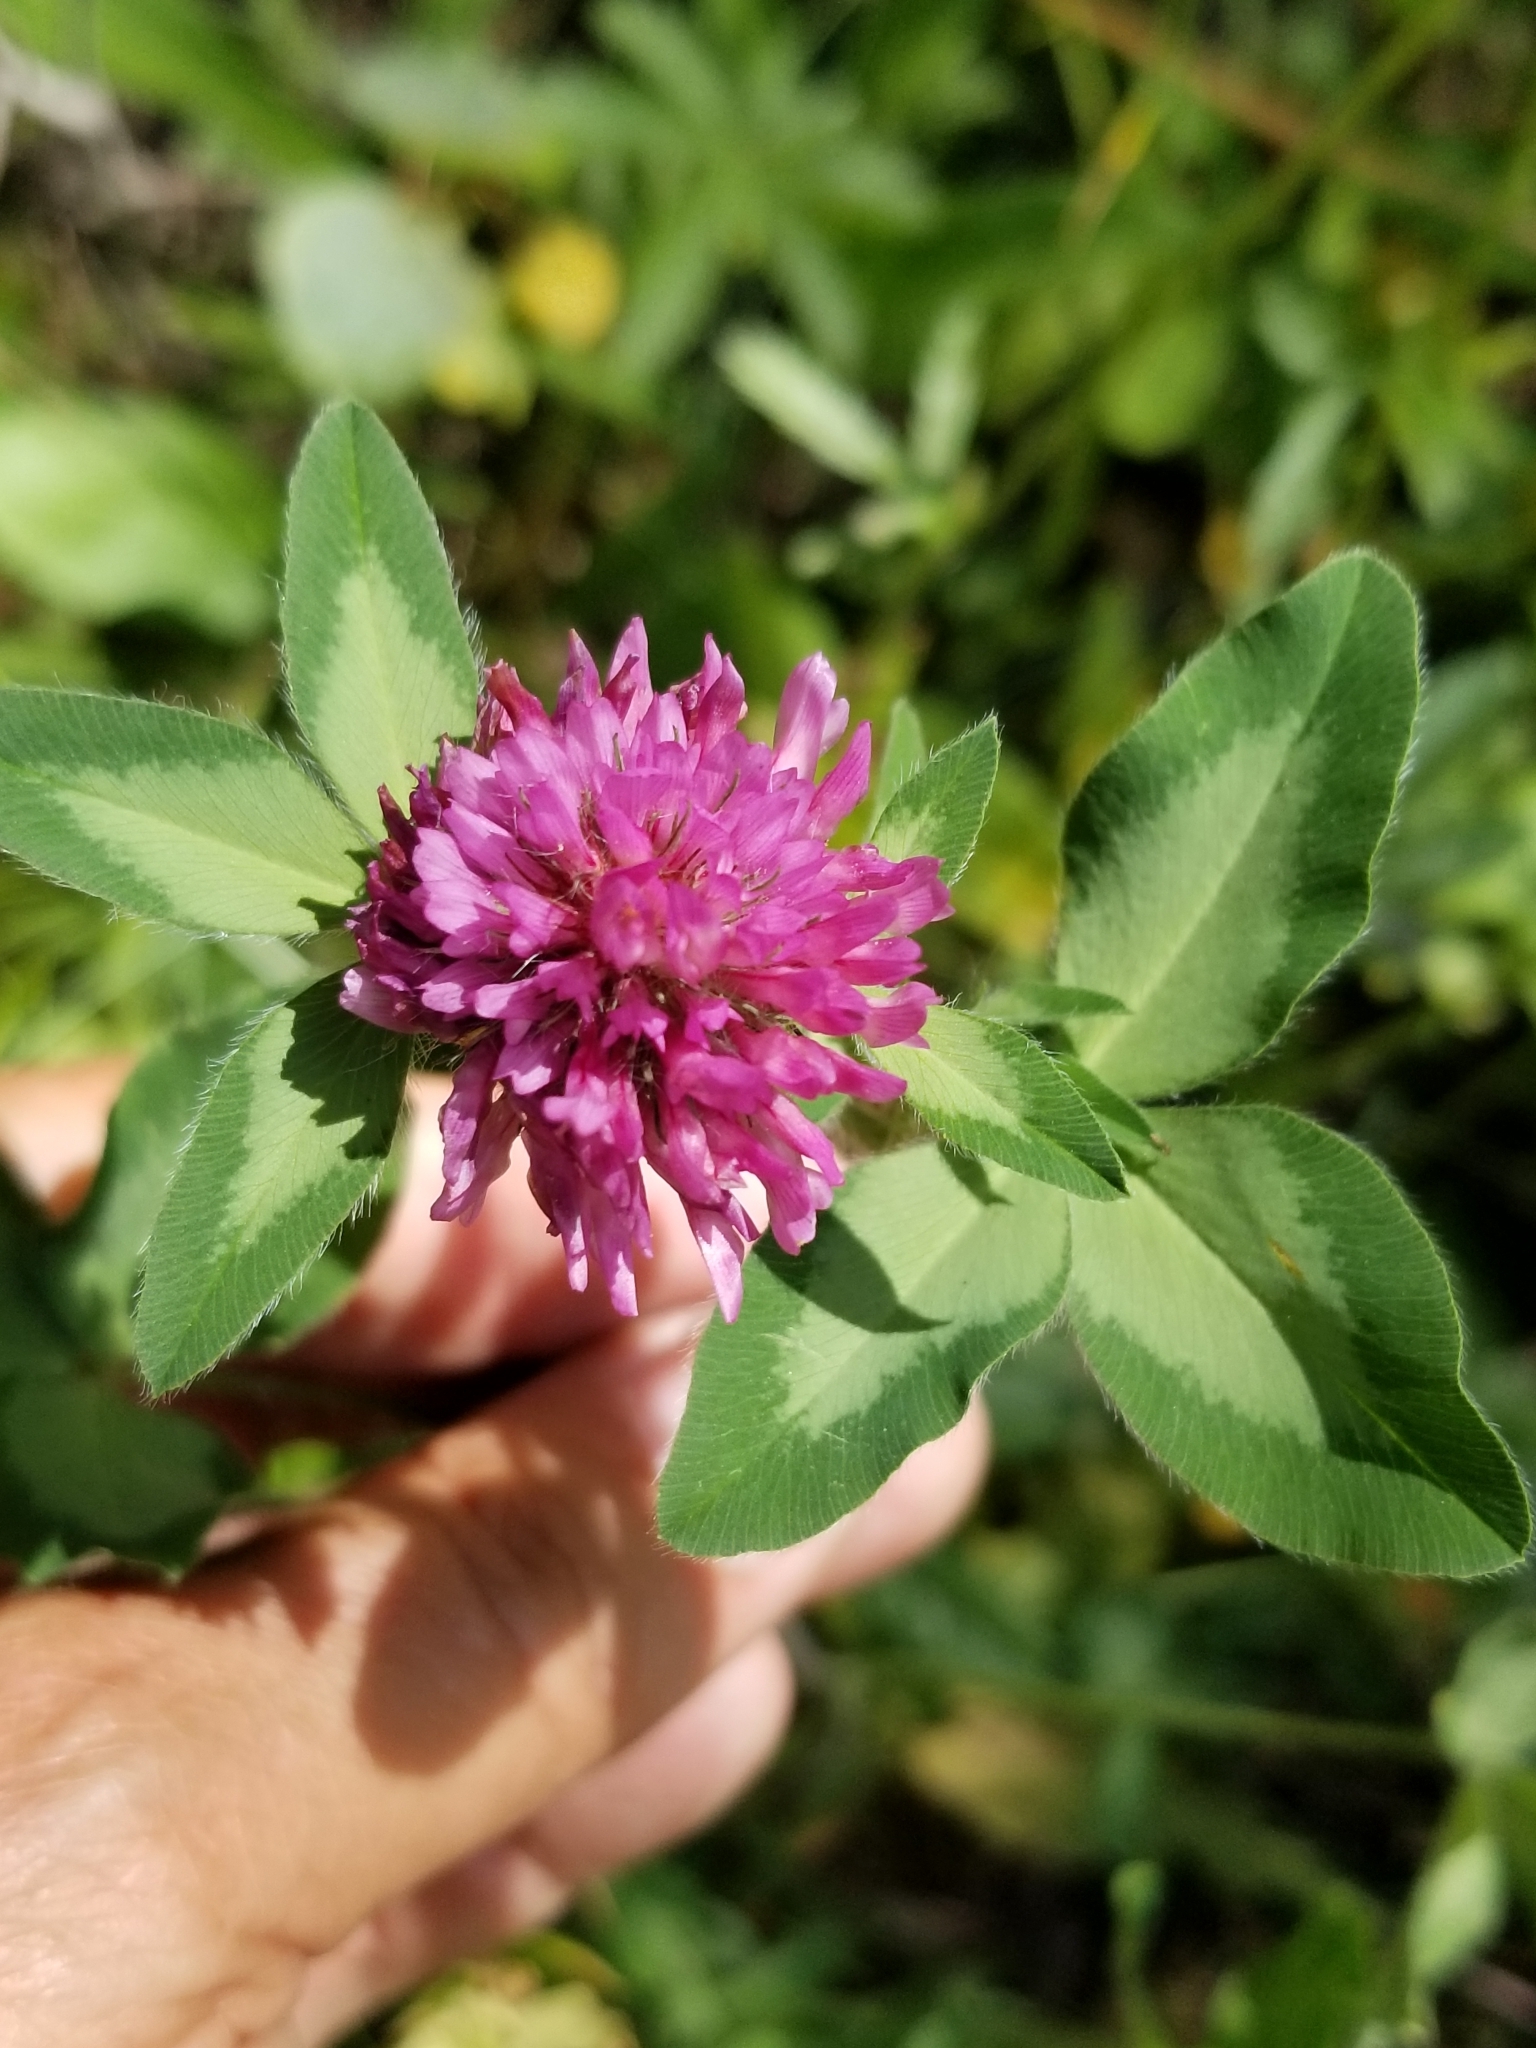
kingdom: Plantae
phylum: Tracheophyta
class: Magnoliopsida
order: Fabales
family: Fabaceae
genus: Trifolium
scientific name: Trifolium pratense
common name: Red clover
